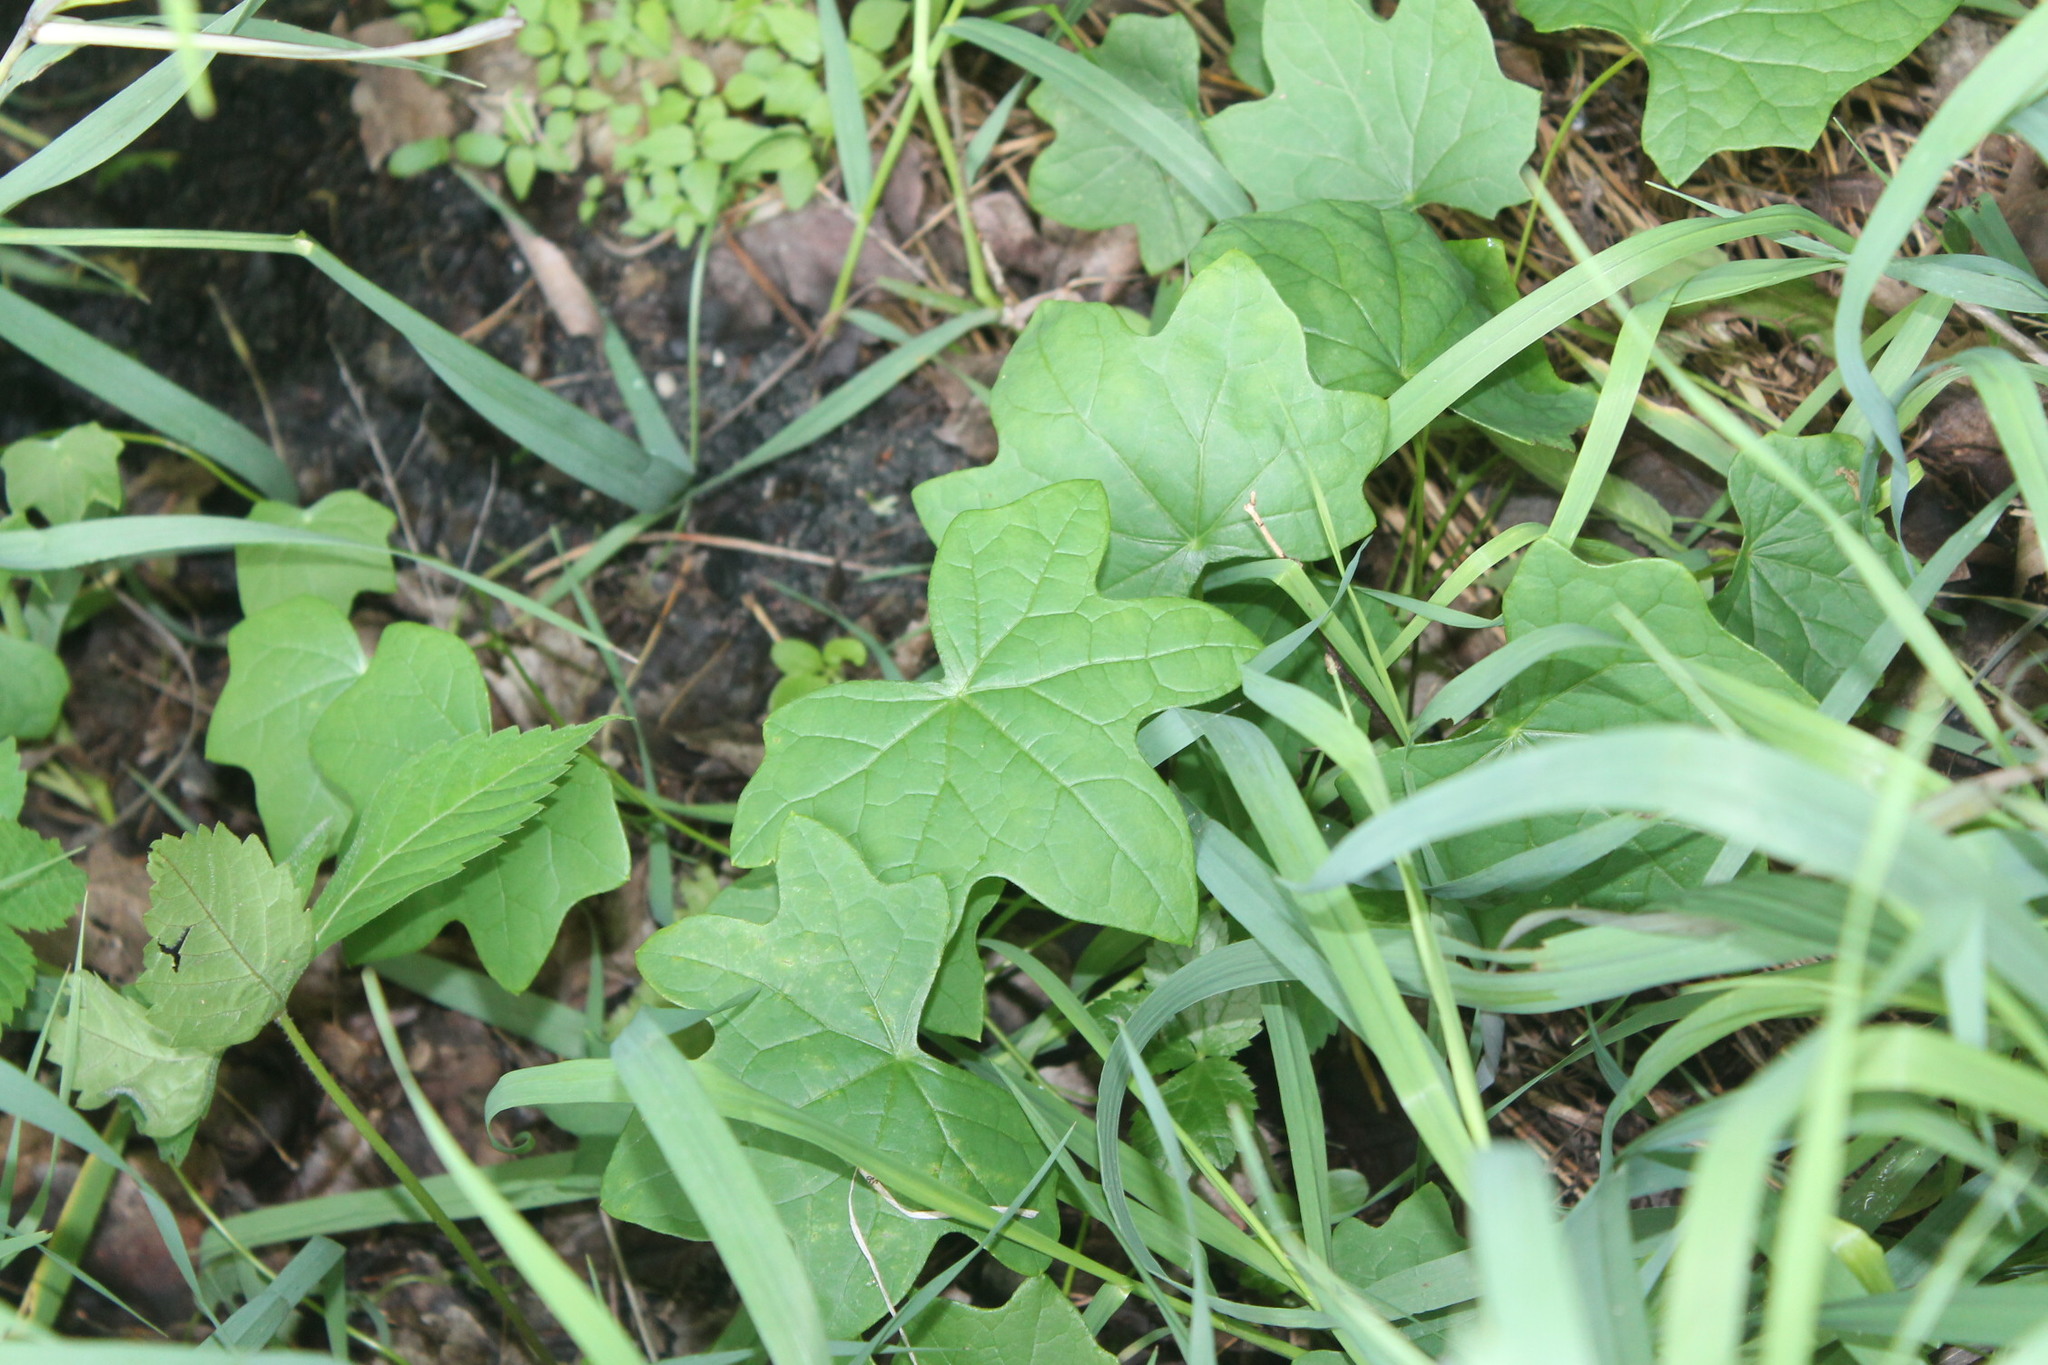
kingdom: Plantae
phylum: Tracheophyta
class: Magnoliopsida
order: Ranunculales
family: Menispermaceae
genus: Menispermum
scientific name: Menispermum canadense
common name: Moonseed
